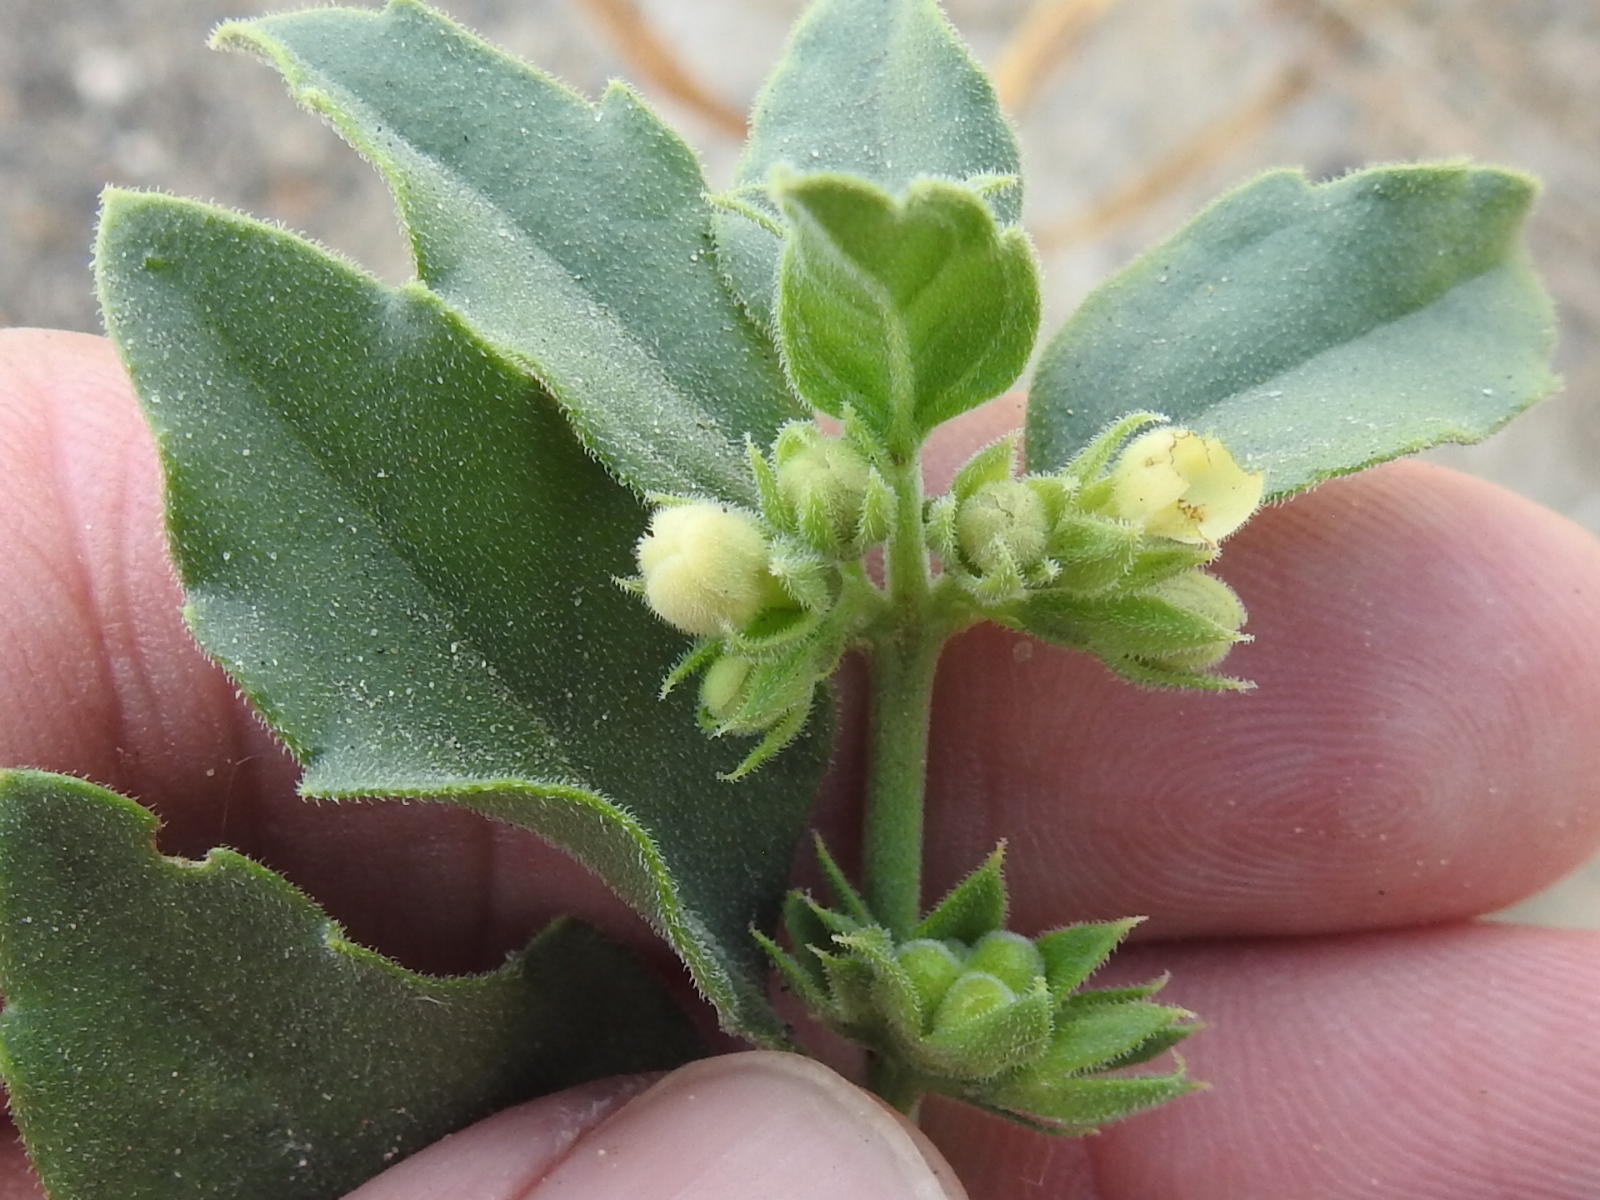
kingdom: Plantae
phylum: Tracheophyta
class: Magnoliopsida
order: Lamiales
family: Lamiaceae
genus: Tetraclea
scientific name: Tetraclea coulteri
